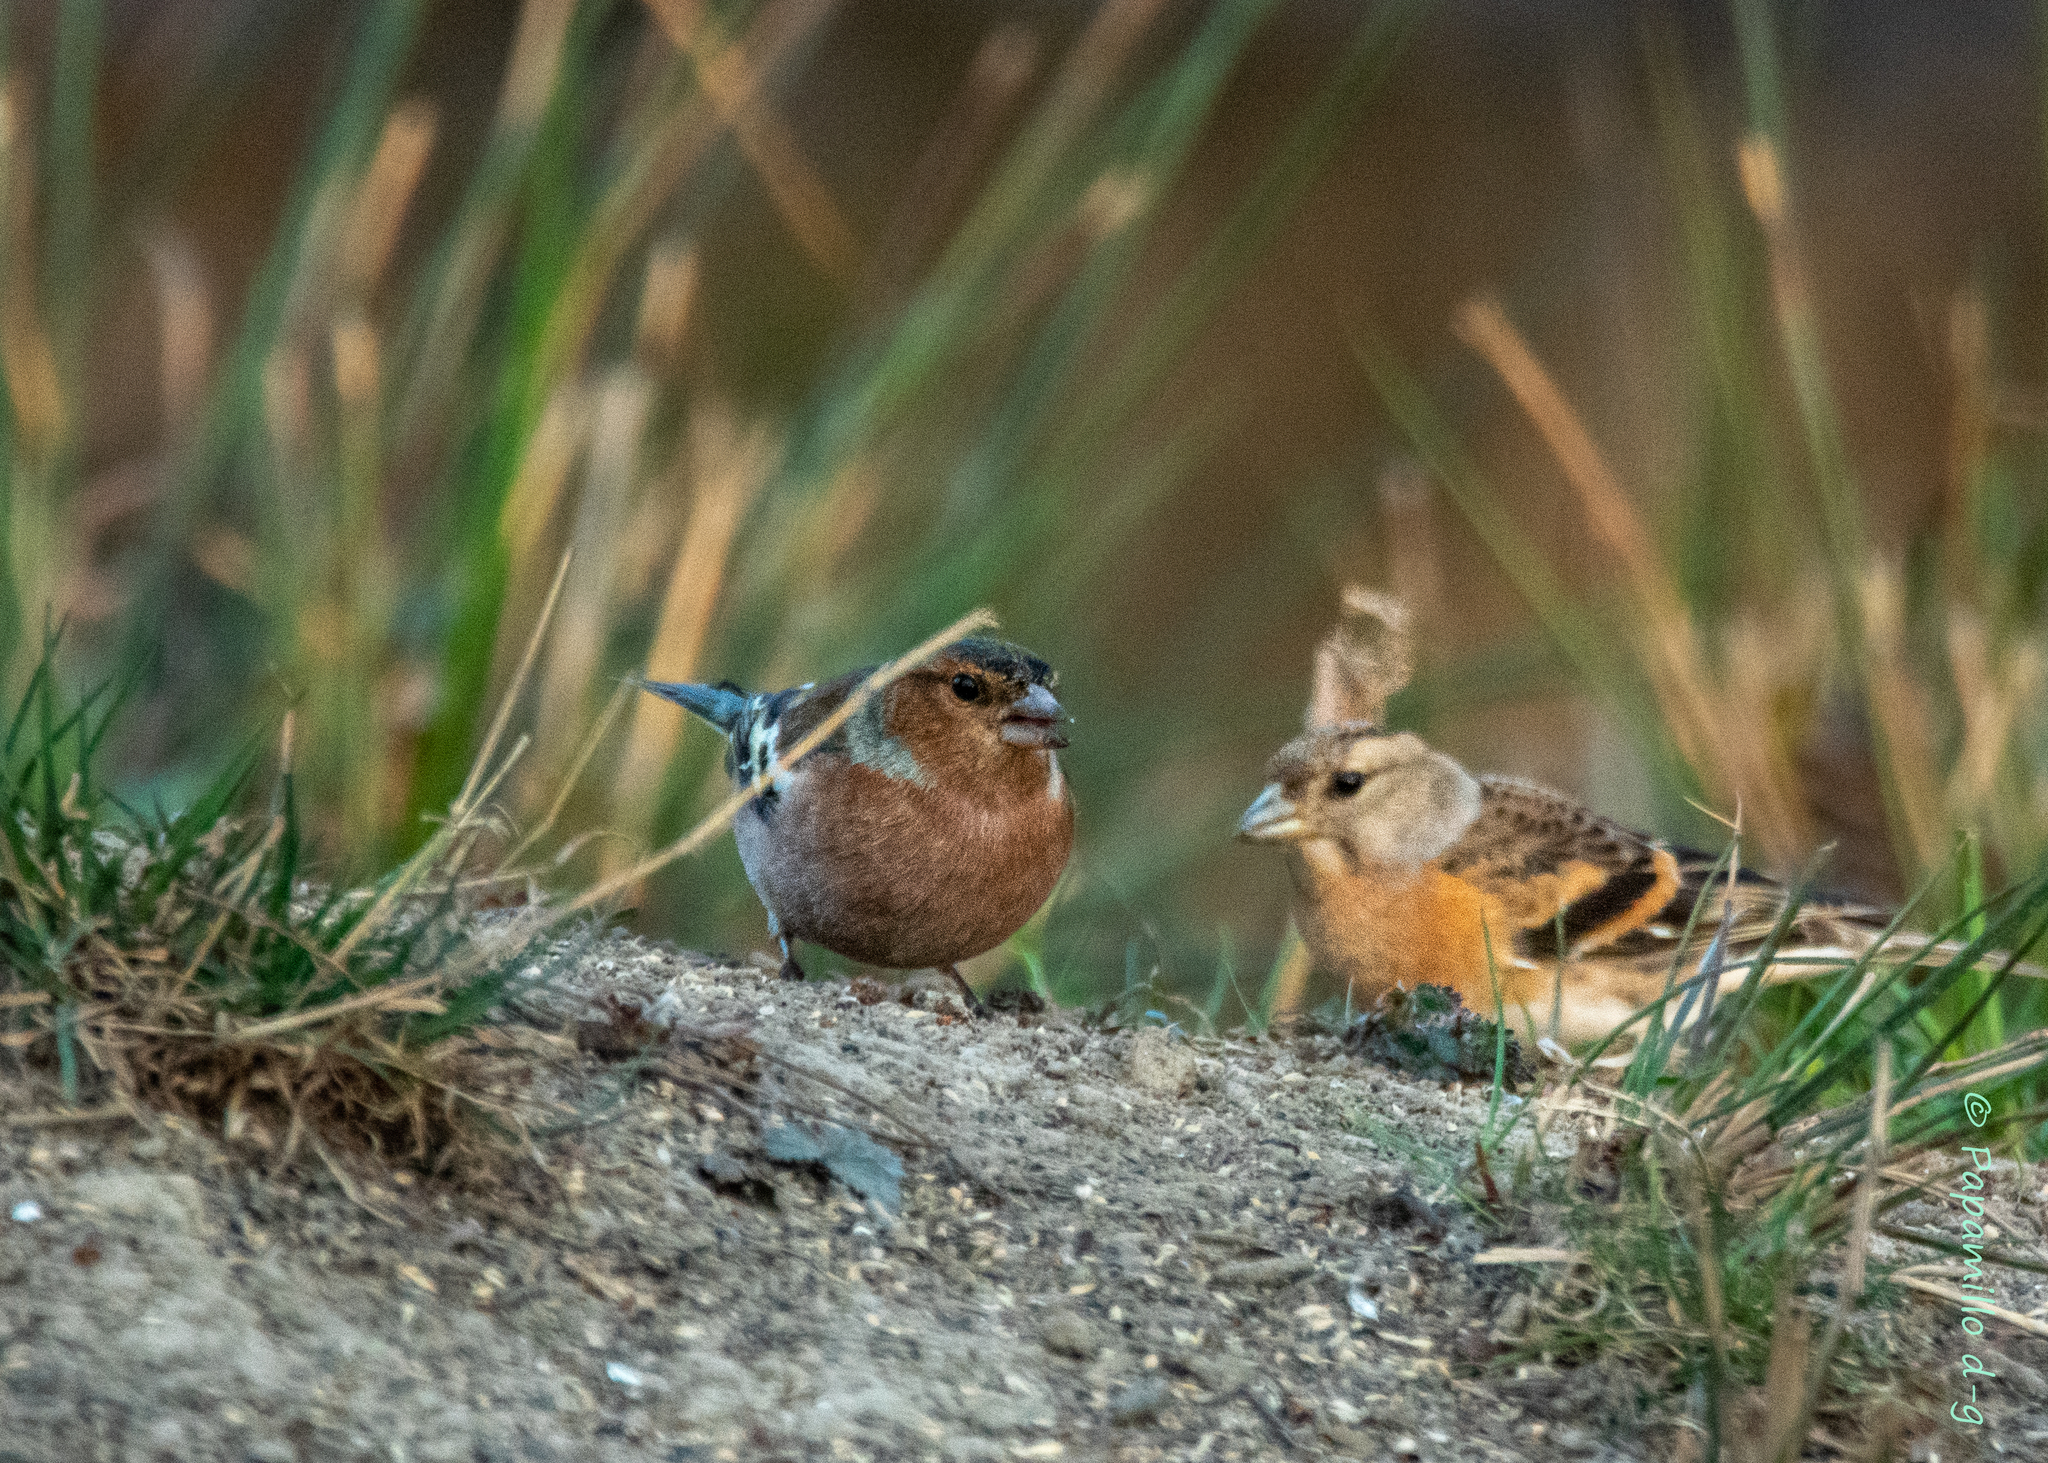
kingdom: Animalia
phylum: Chordata
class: Aves
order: Passeriformes
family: Fringillidae
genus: Fringilla
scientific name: Fringilla montifringilla
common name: Brambling
